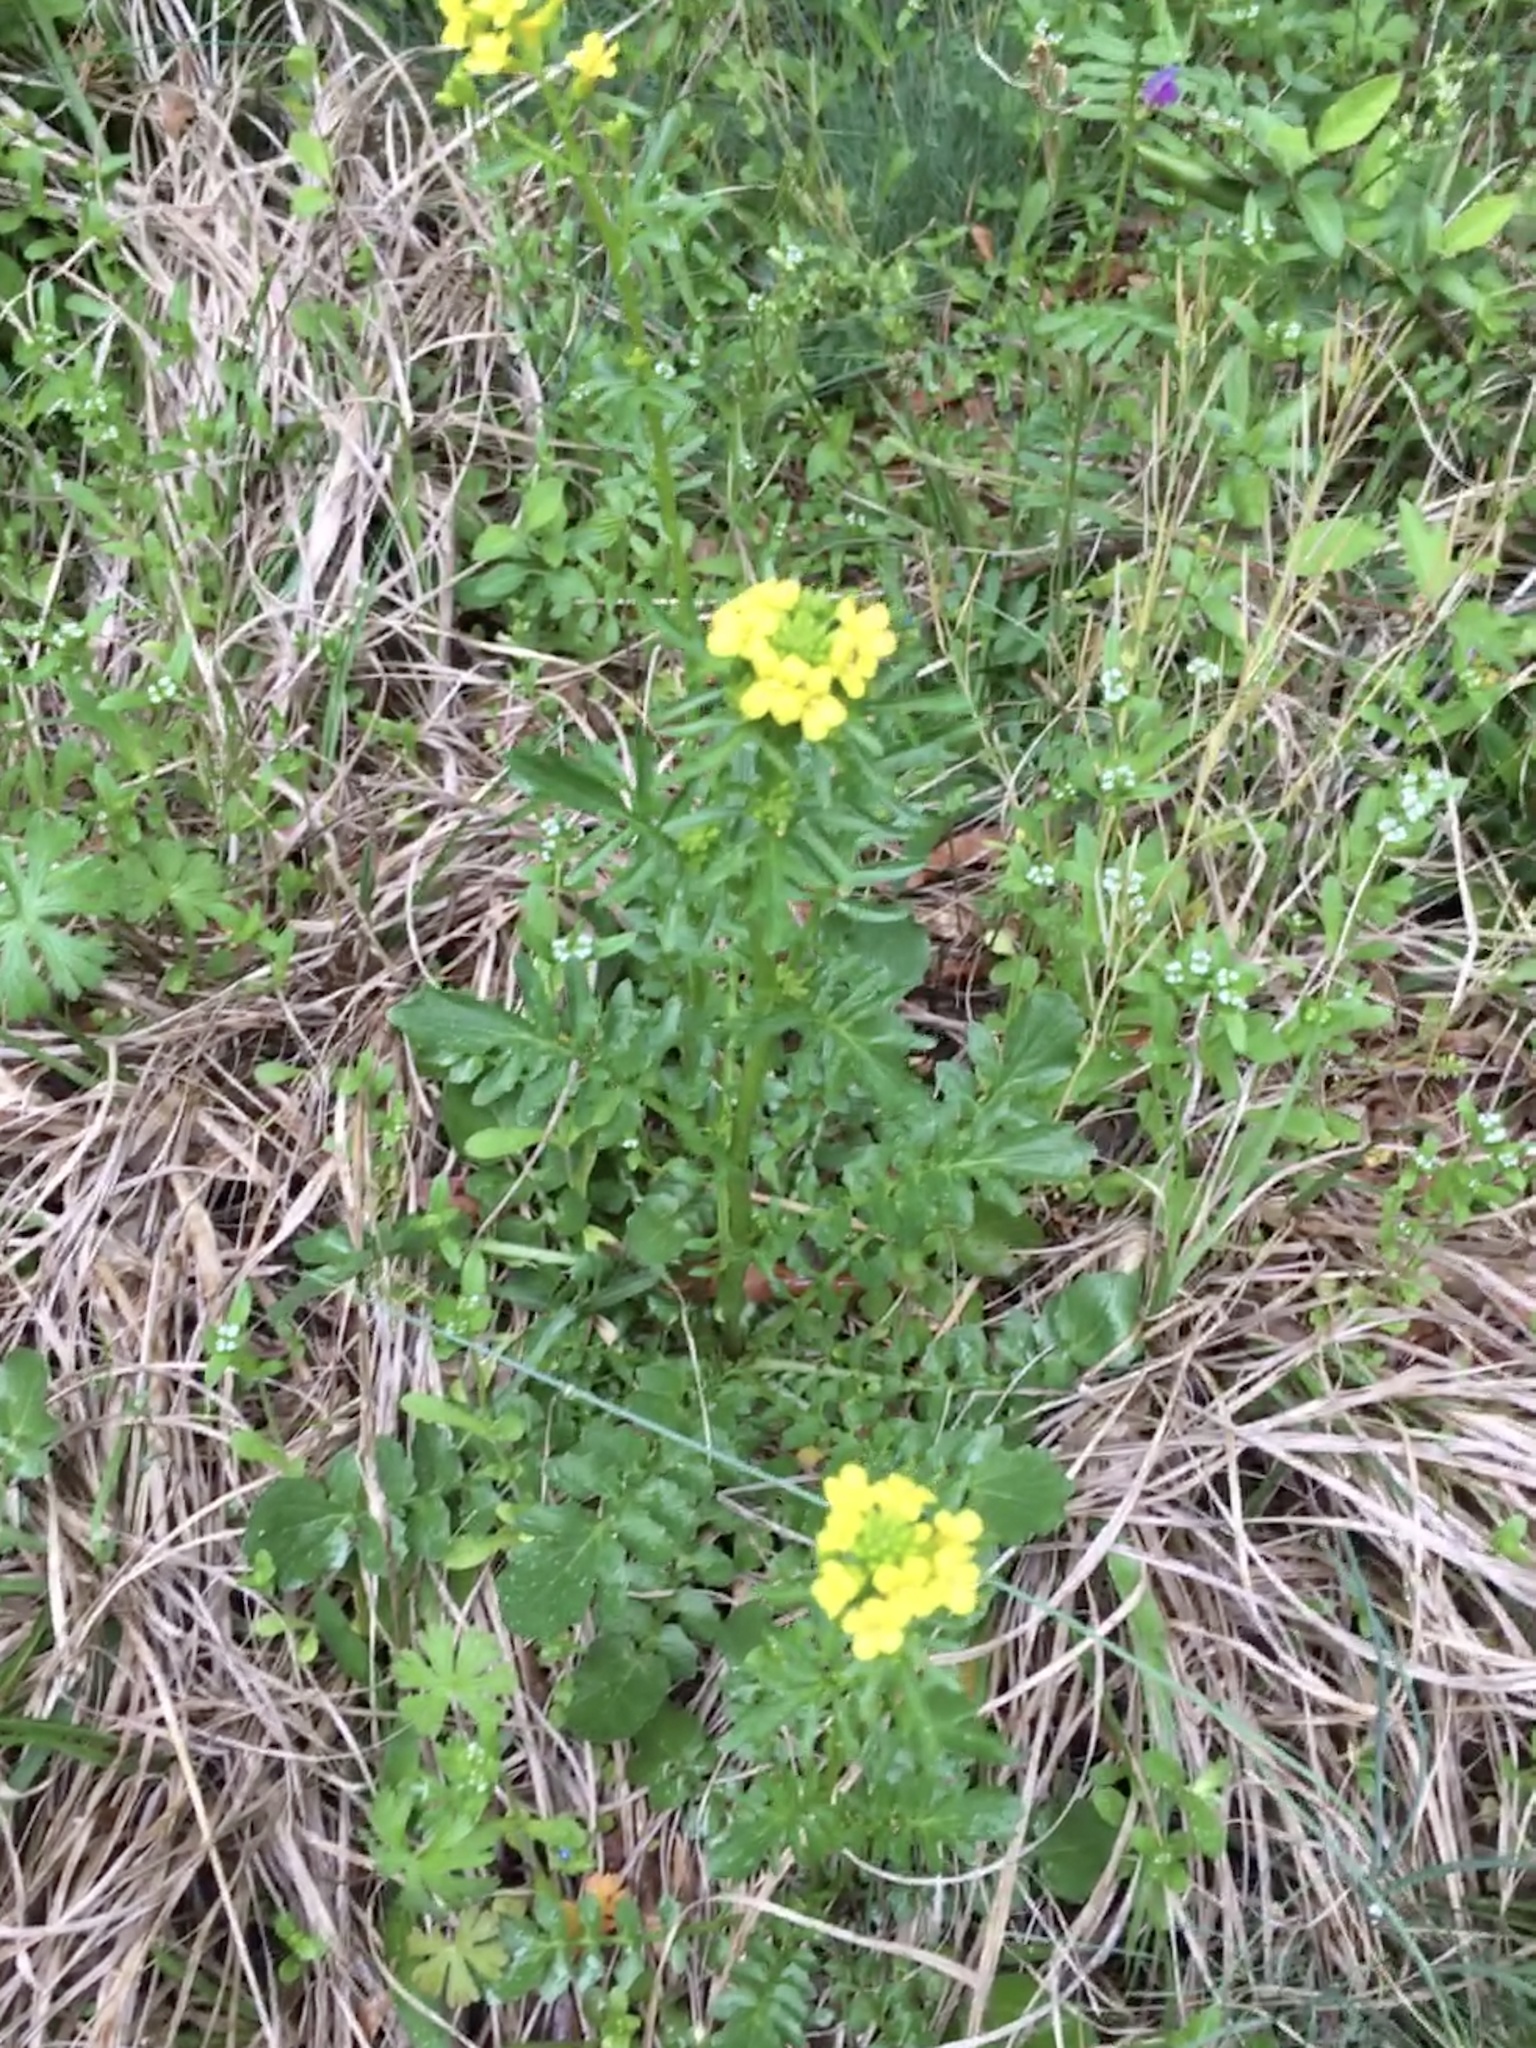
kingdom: Plantae
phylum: Tracheophyta
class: Magnoliopsida
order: Brassicales
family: Brassicaceae
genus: Barbarea
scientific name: Barbarea verna
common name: American cress
